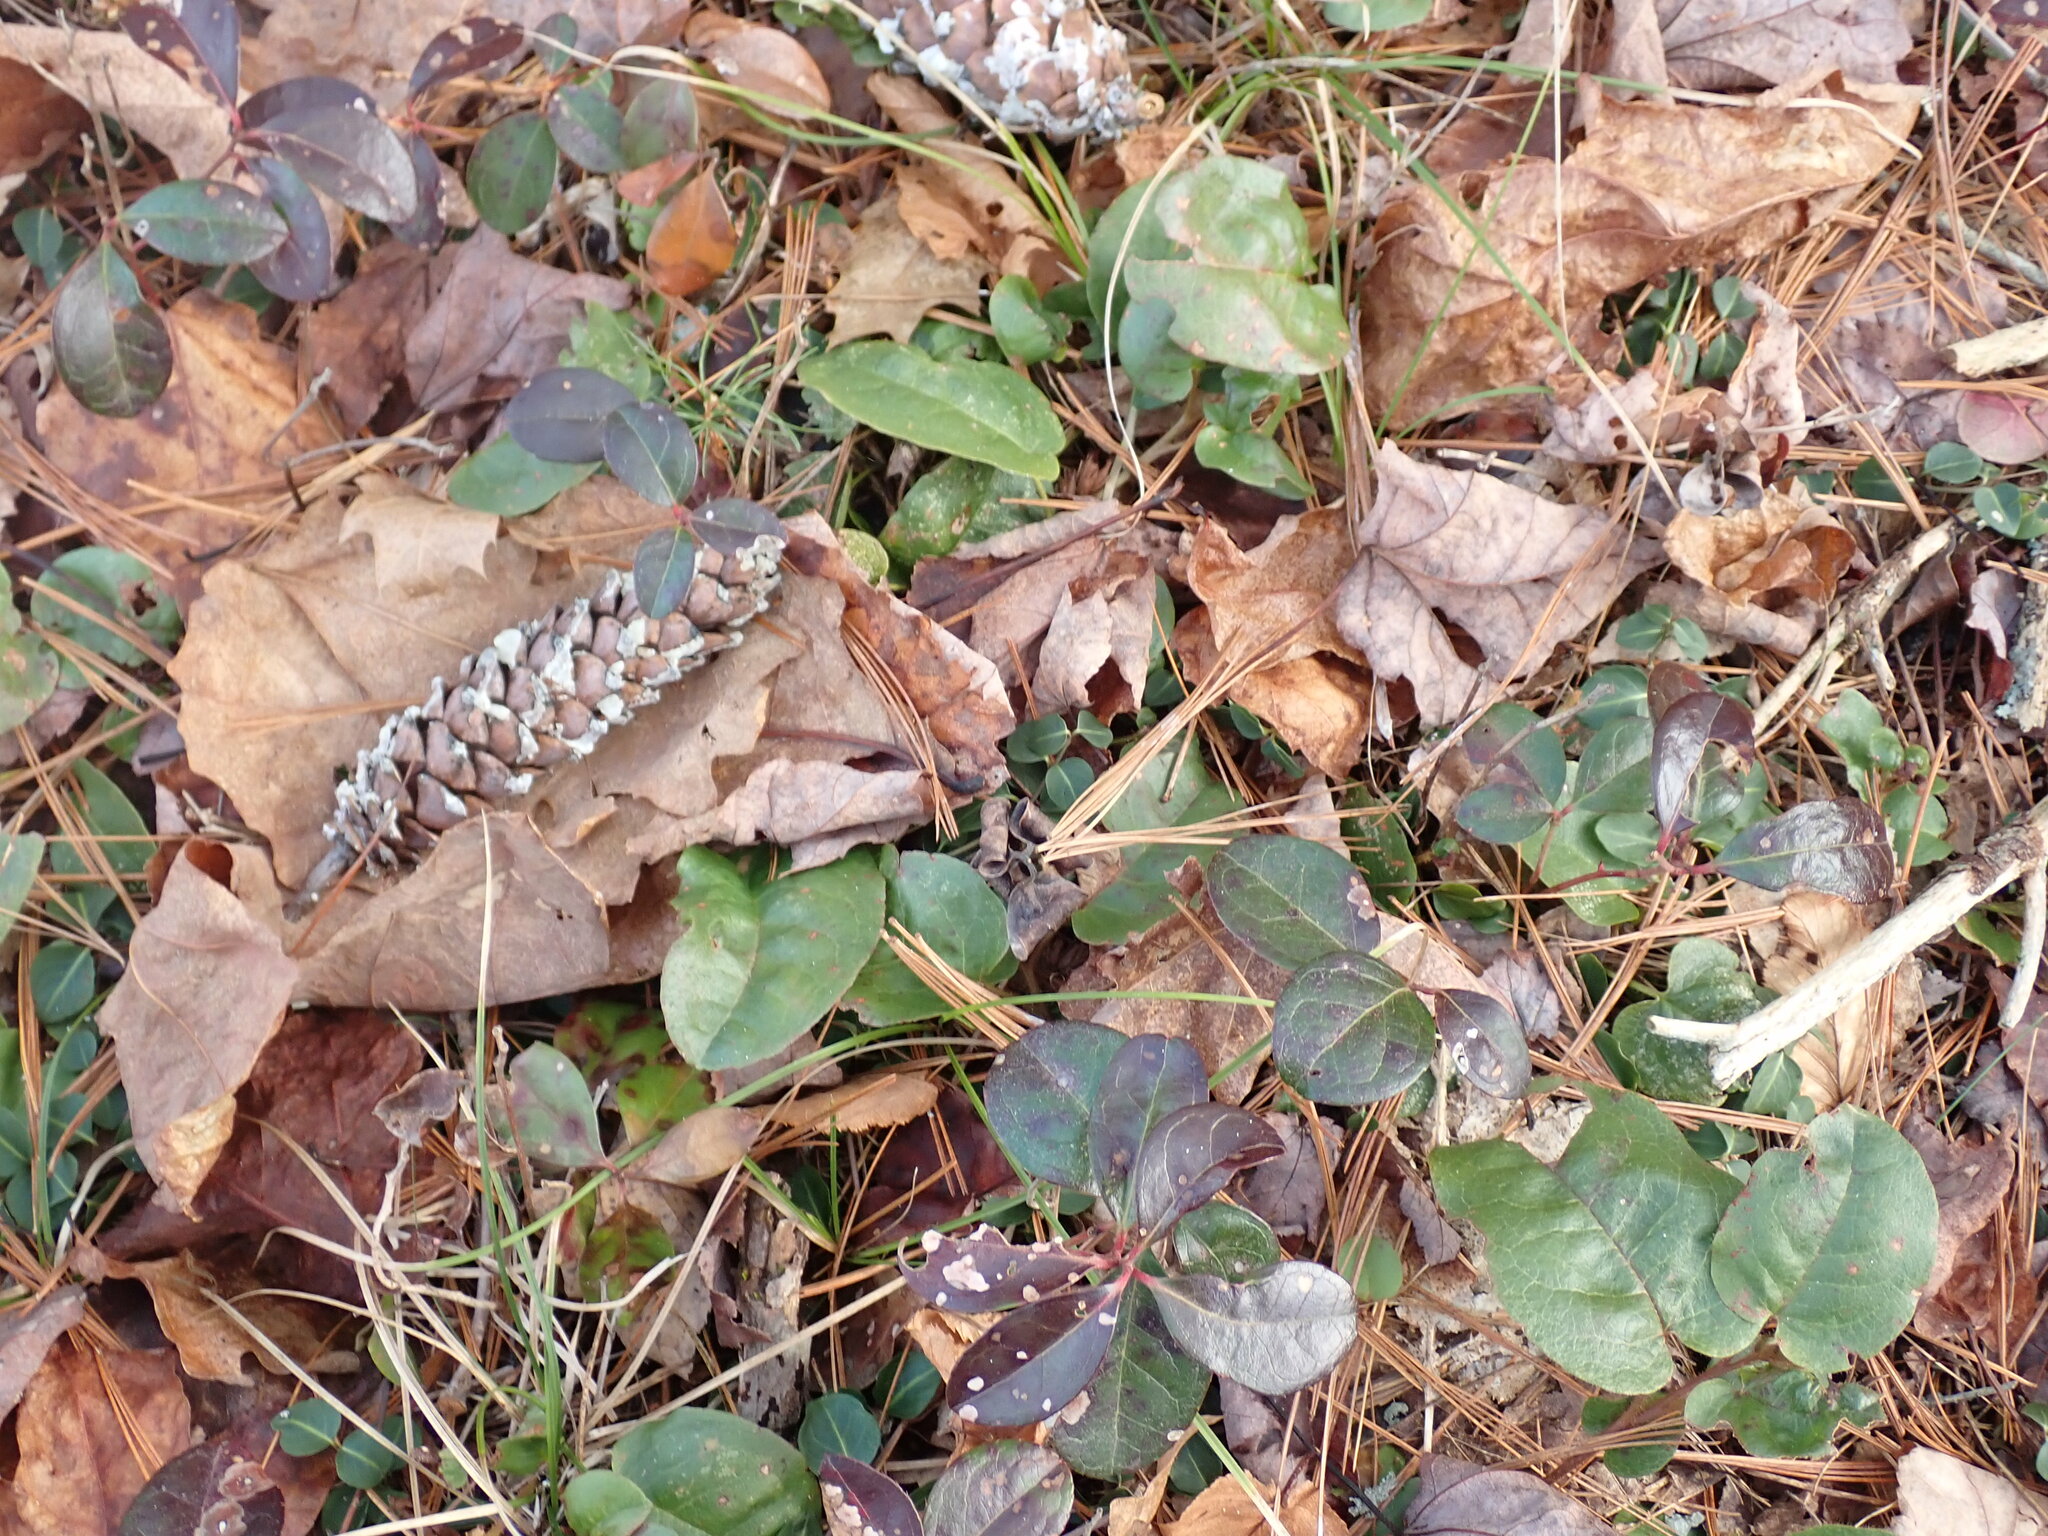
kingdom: Plantae
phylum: Tracheophyta
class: Magnoliopsida
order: Ericales
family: Ericaceae
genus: Epigaea
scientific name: Epigaea repens
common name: Gravelroot
